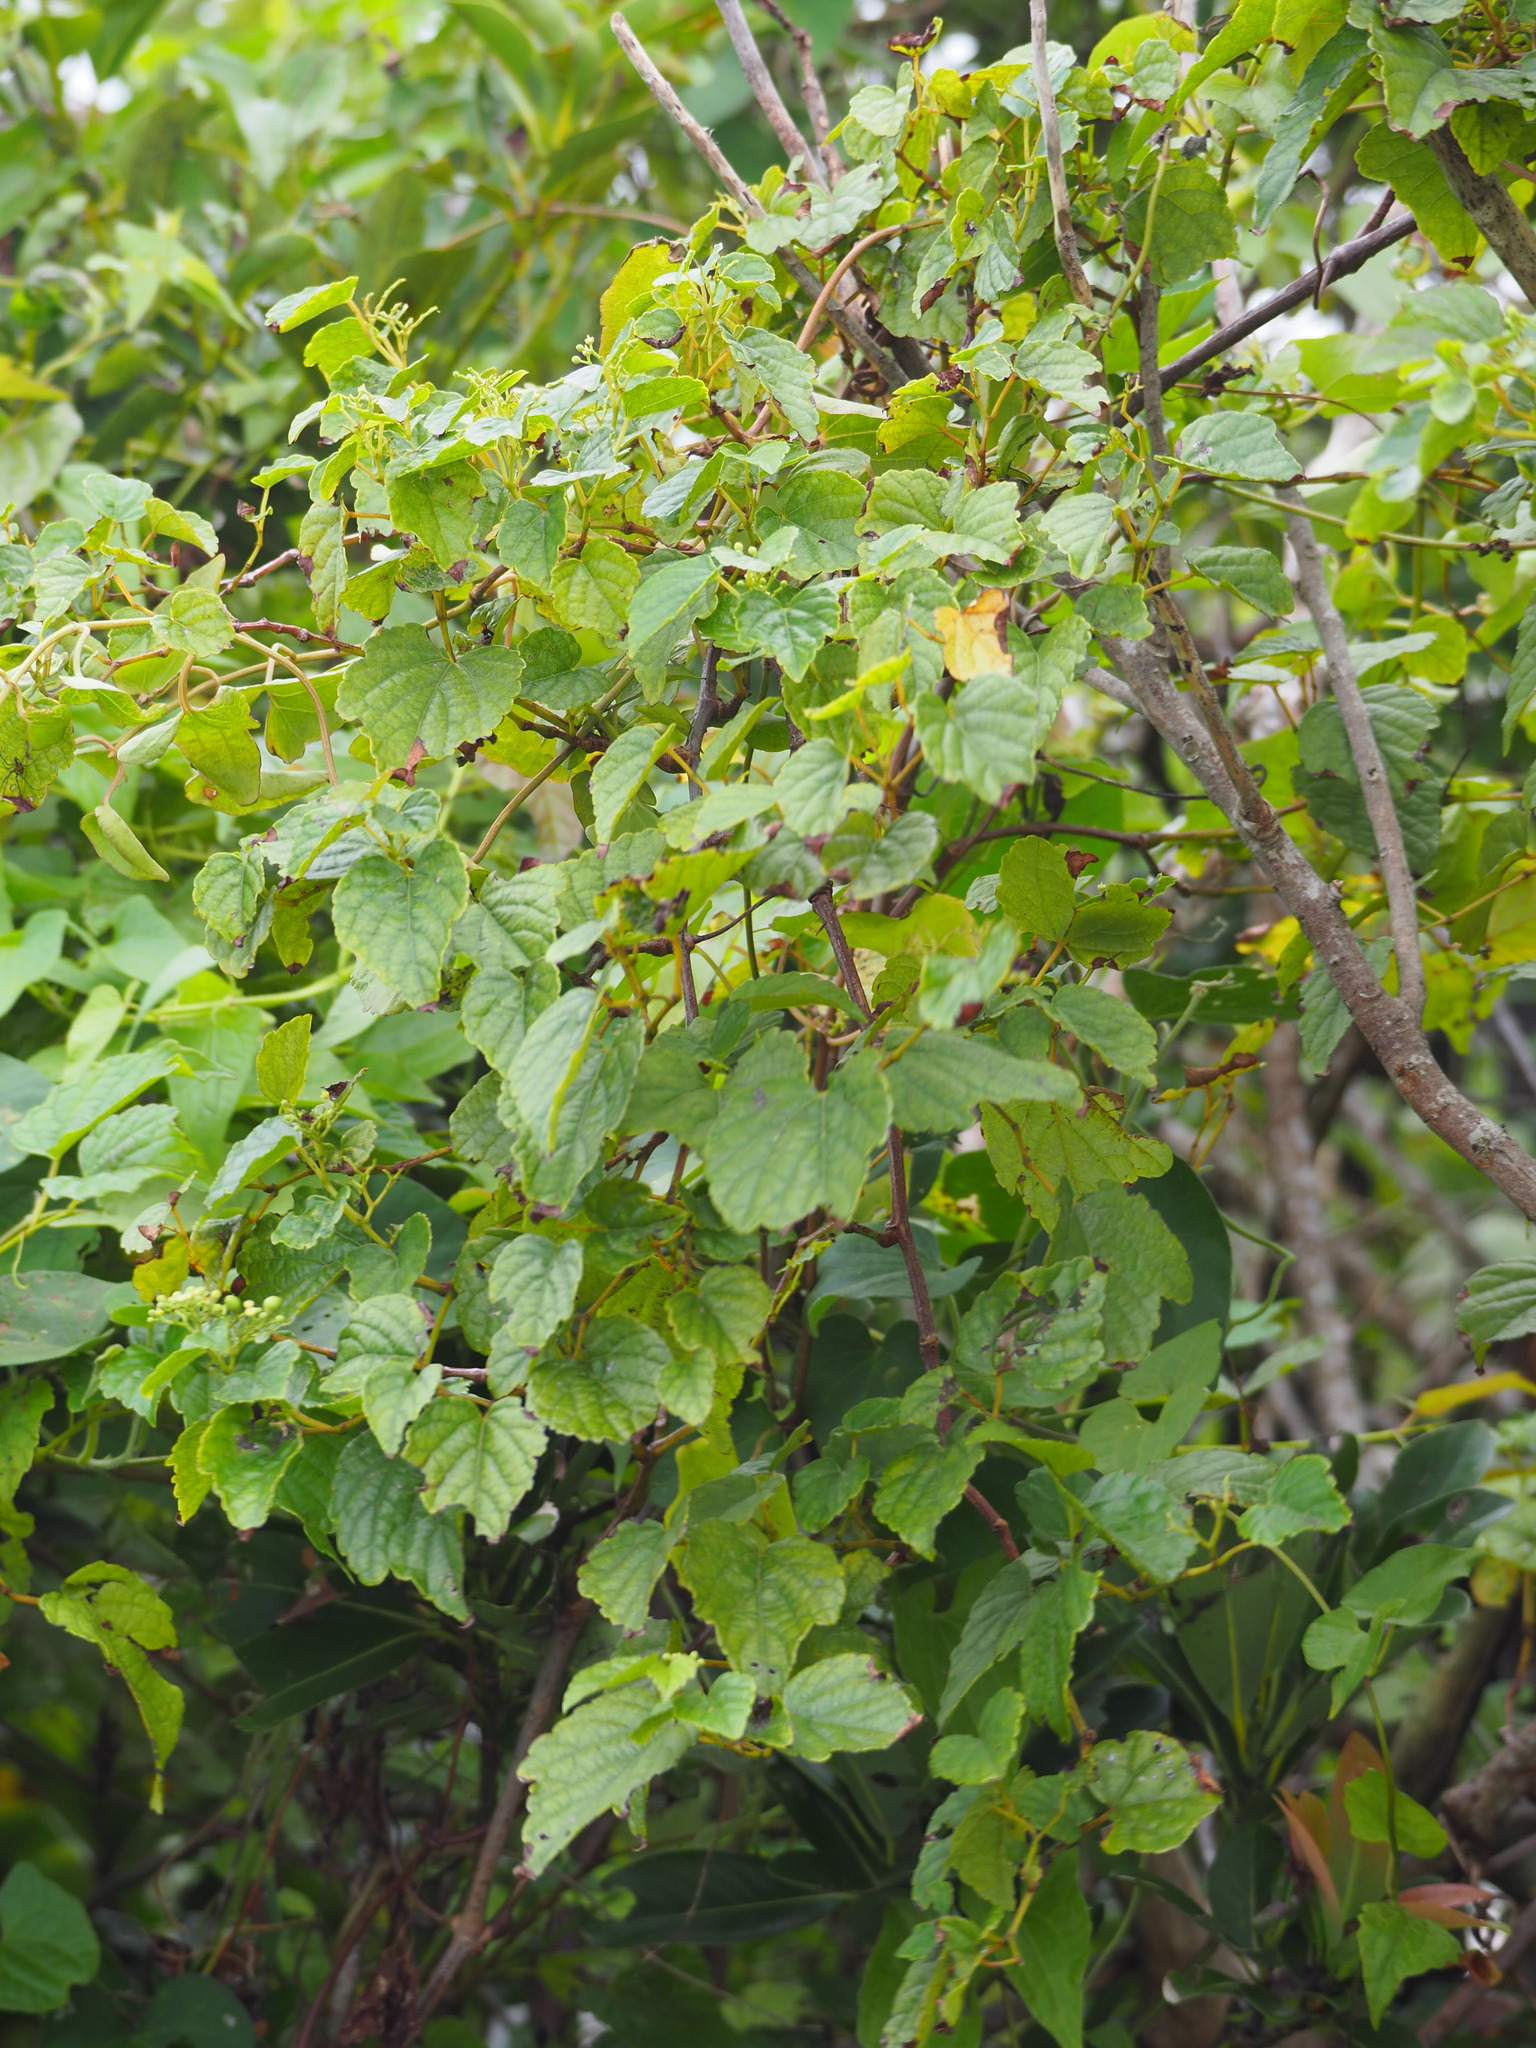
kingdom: Plantae
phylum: Tracheophyta
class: Magnoliopsida
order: Vitales
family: Vitaceae
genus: Ampelopsis
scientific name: Ampelopsis glandulosa
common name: Amur peppervine
